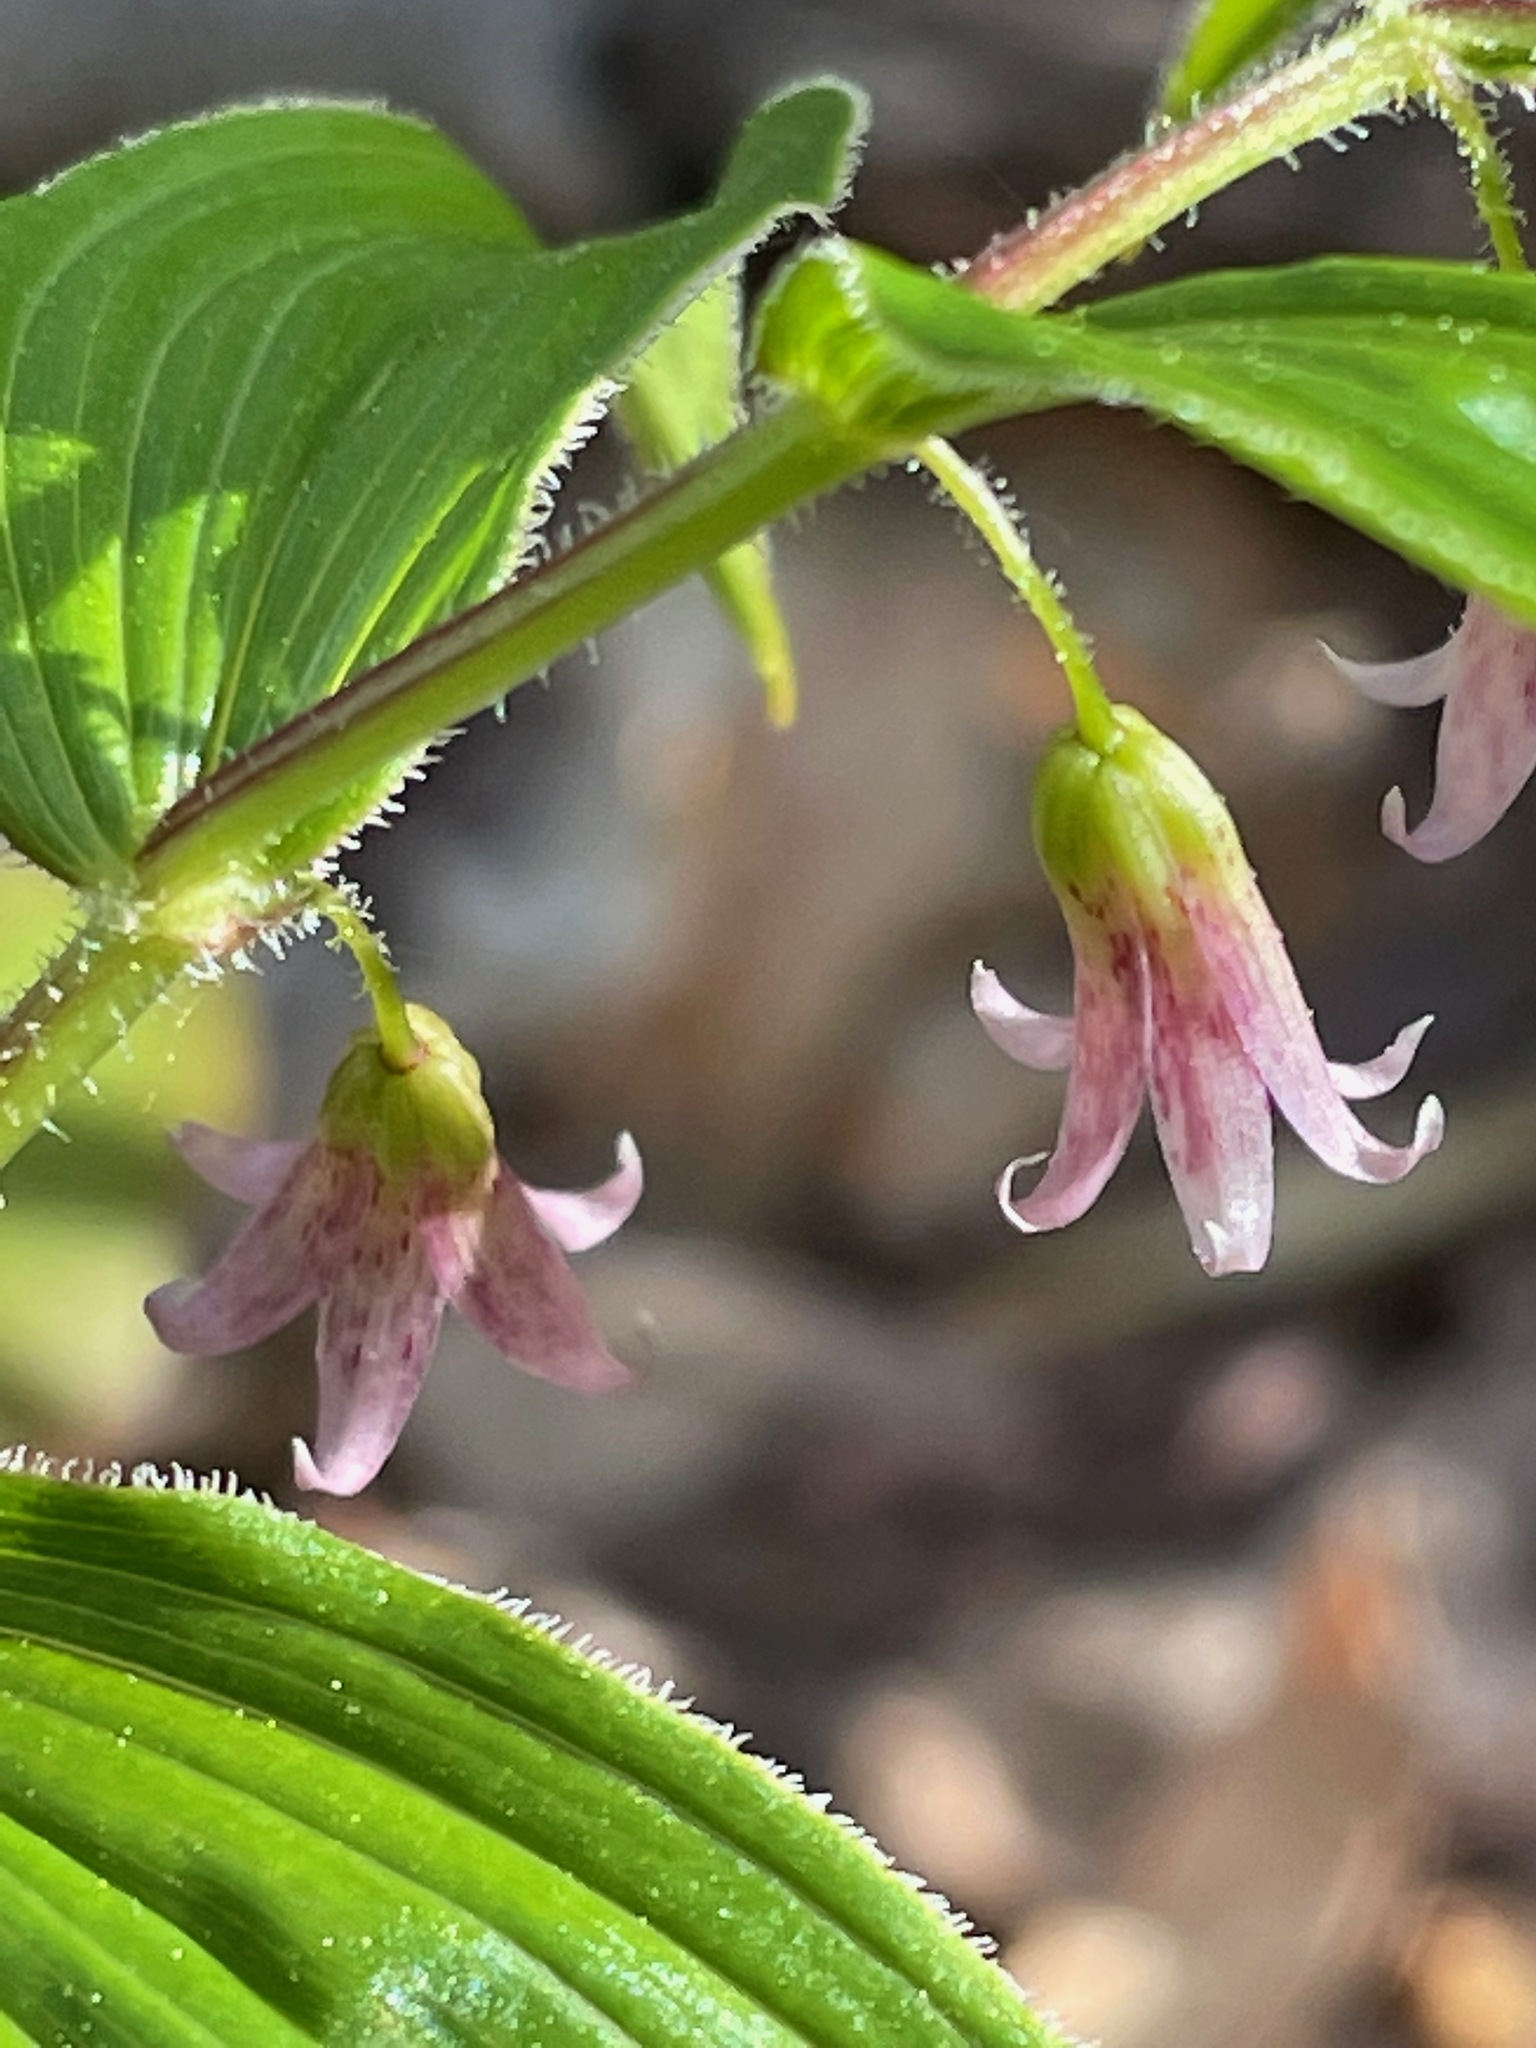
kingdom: Plantae
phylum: Tracheophyta
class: Liliopsida
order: Liliales
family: Liliaceae
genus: Streptopus
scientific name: Streptopus lanceolatus
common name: Rose mandarin
